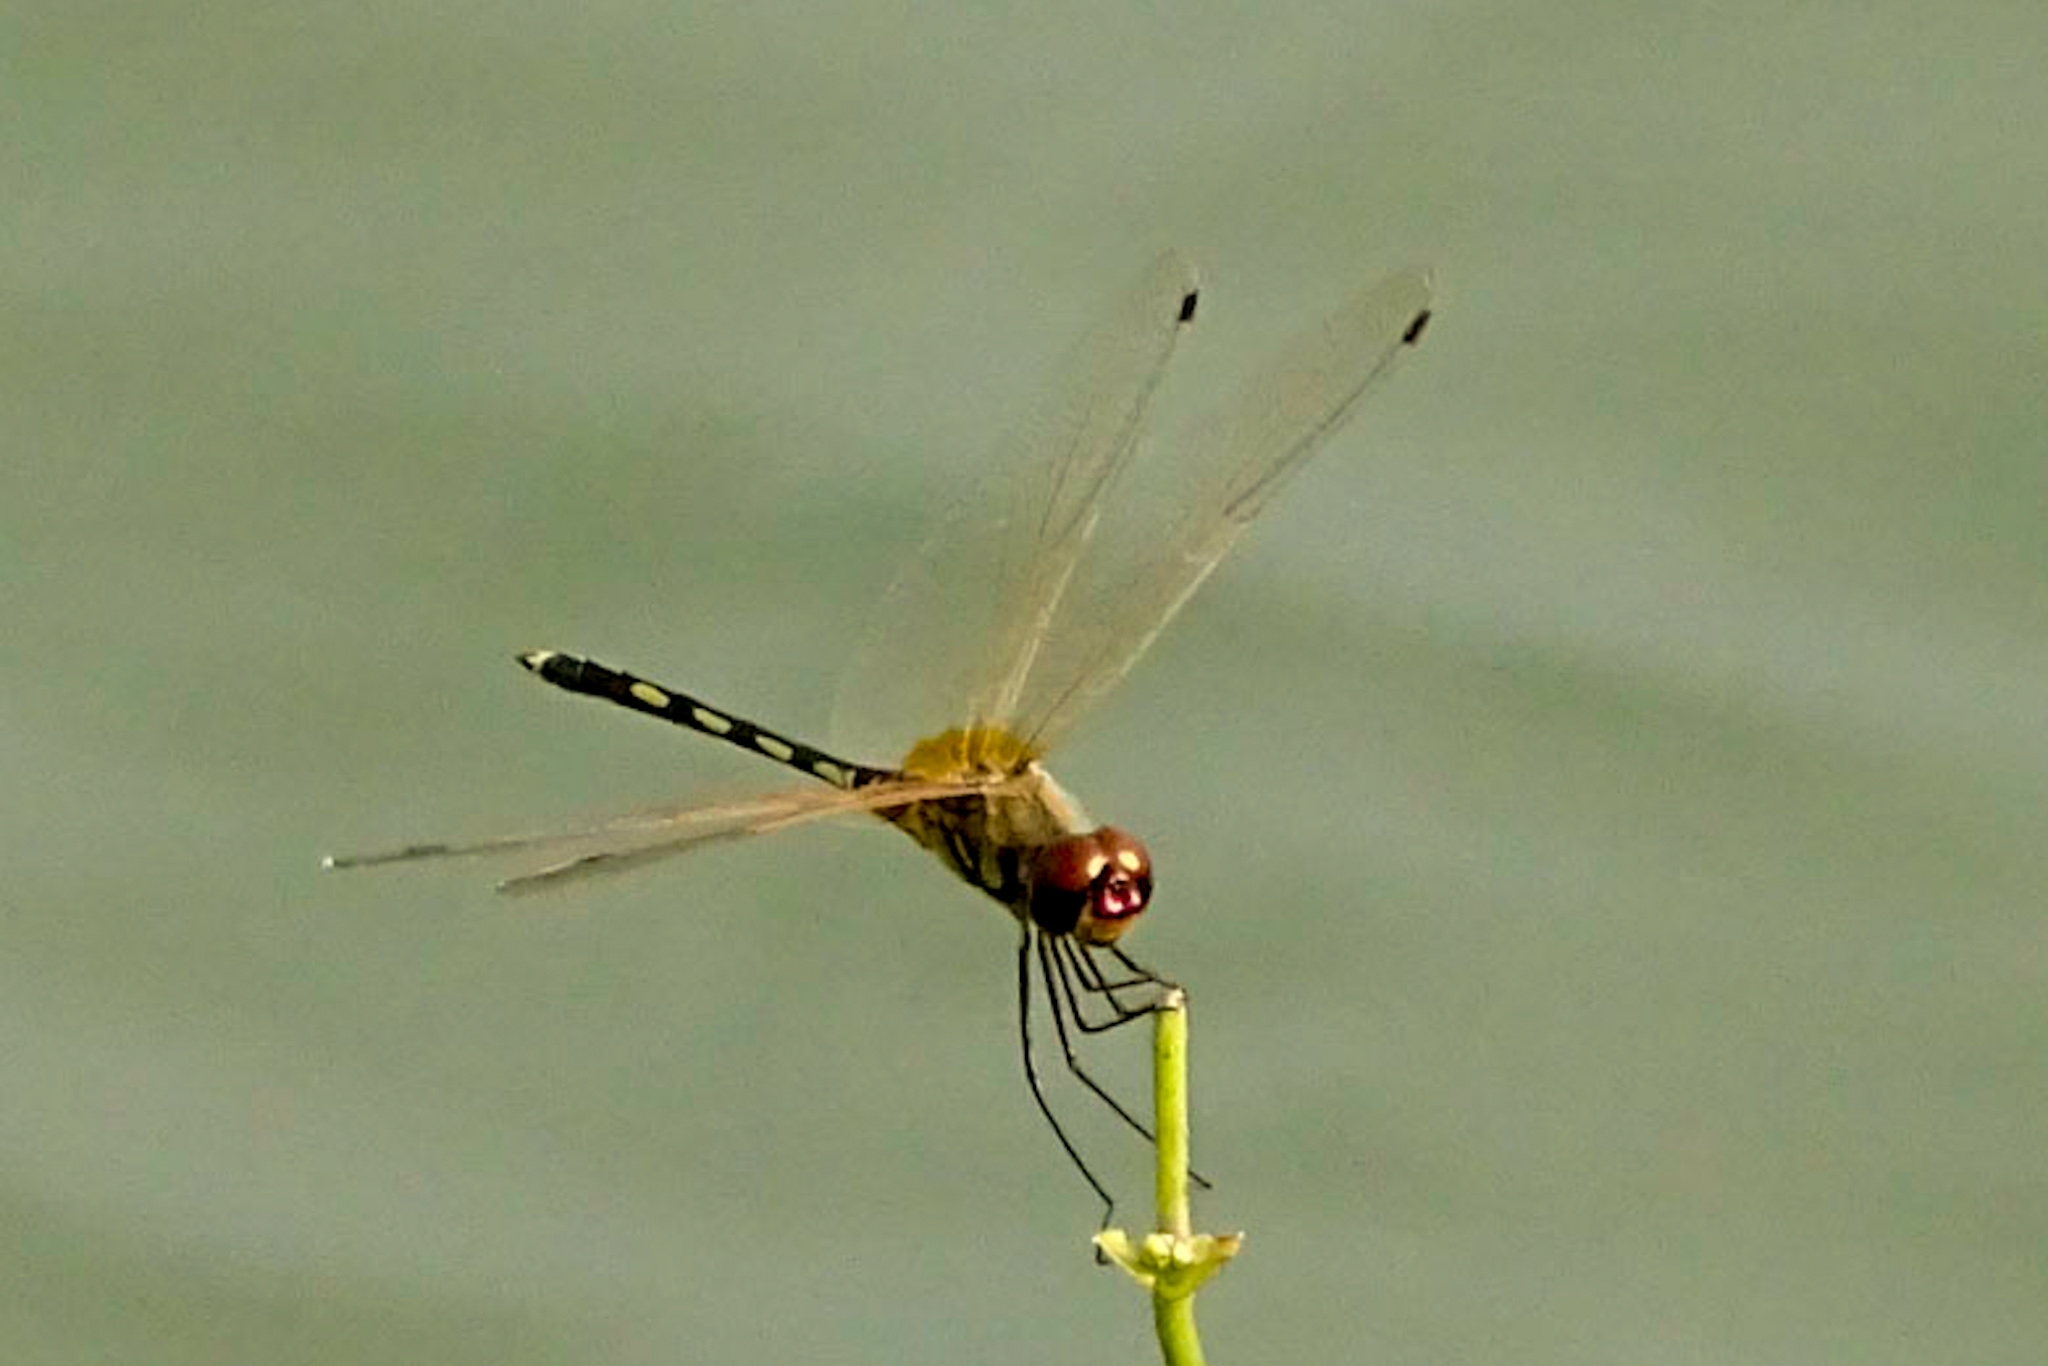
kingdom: Animalia
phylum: Arthropoda
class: Insecta
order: Odonata
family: Libellulidae
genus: Trithemis
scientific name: Trithemis pallidinervis
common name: Dancing dropwing
